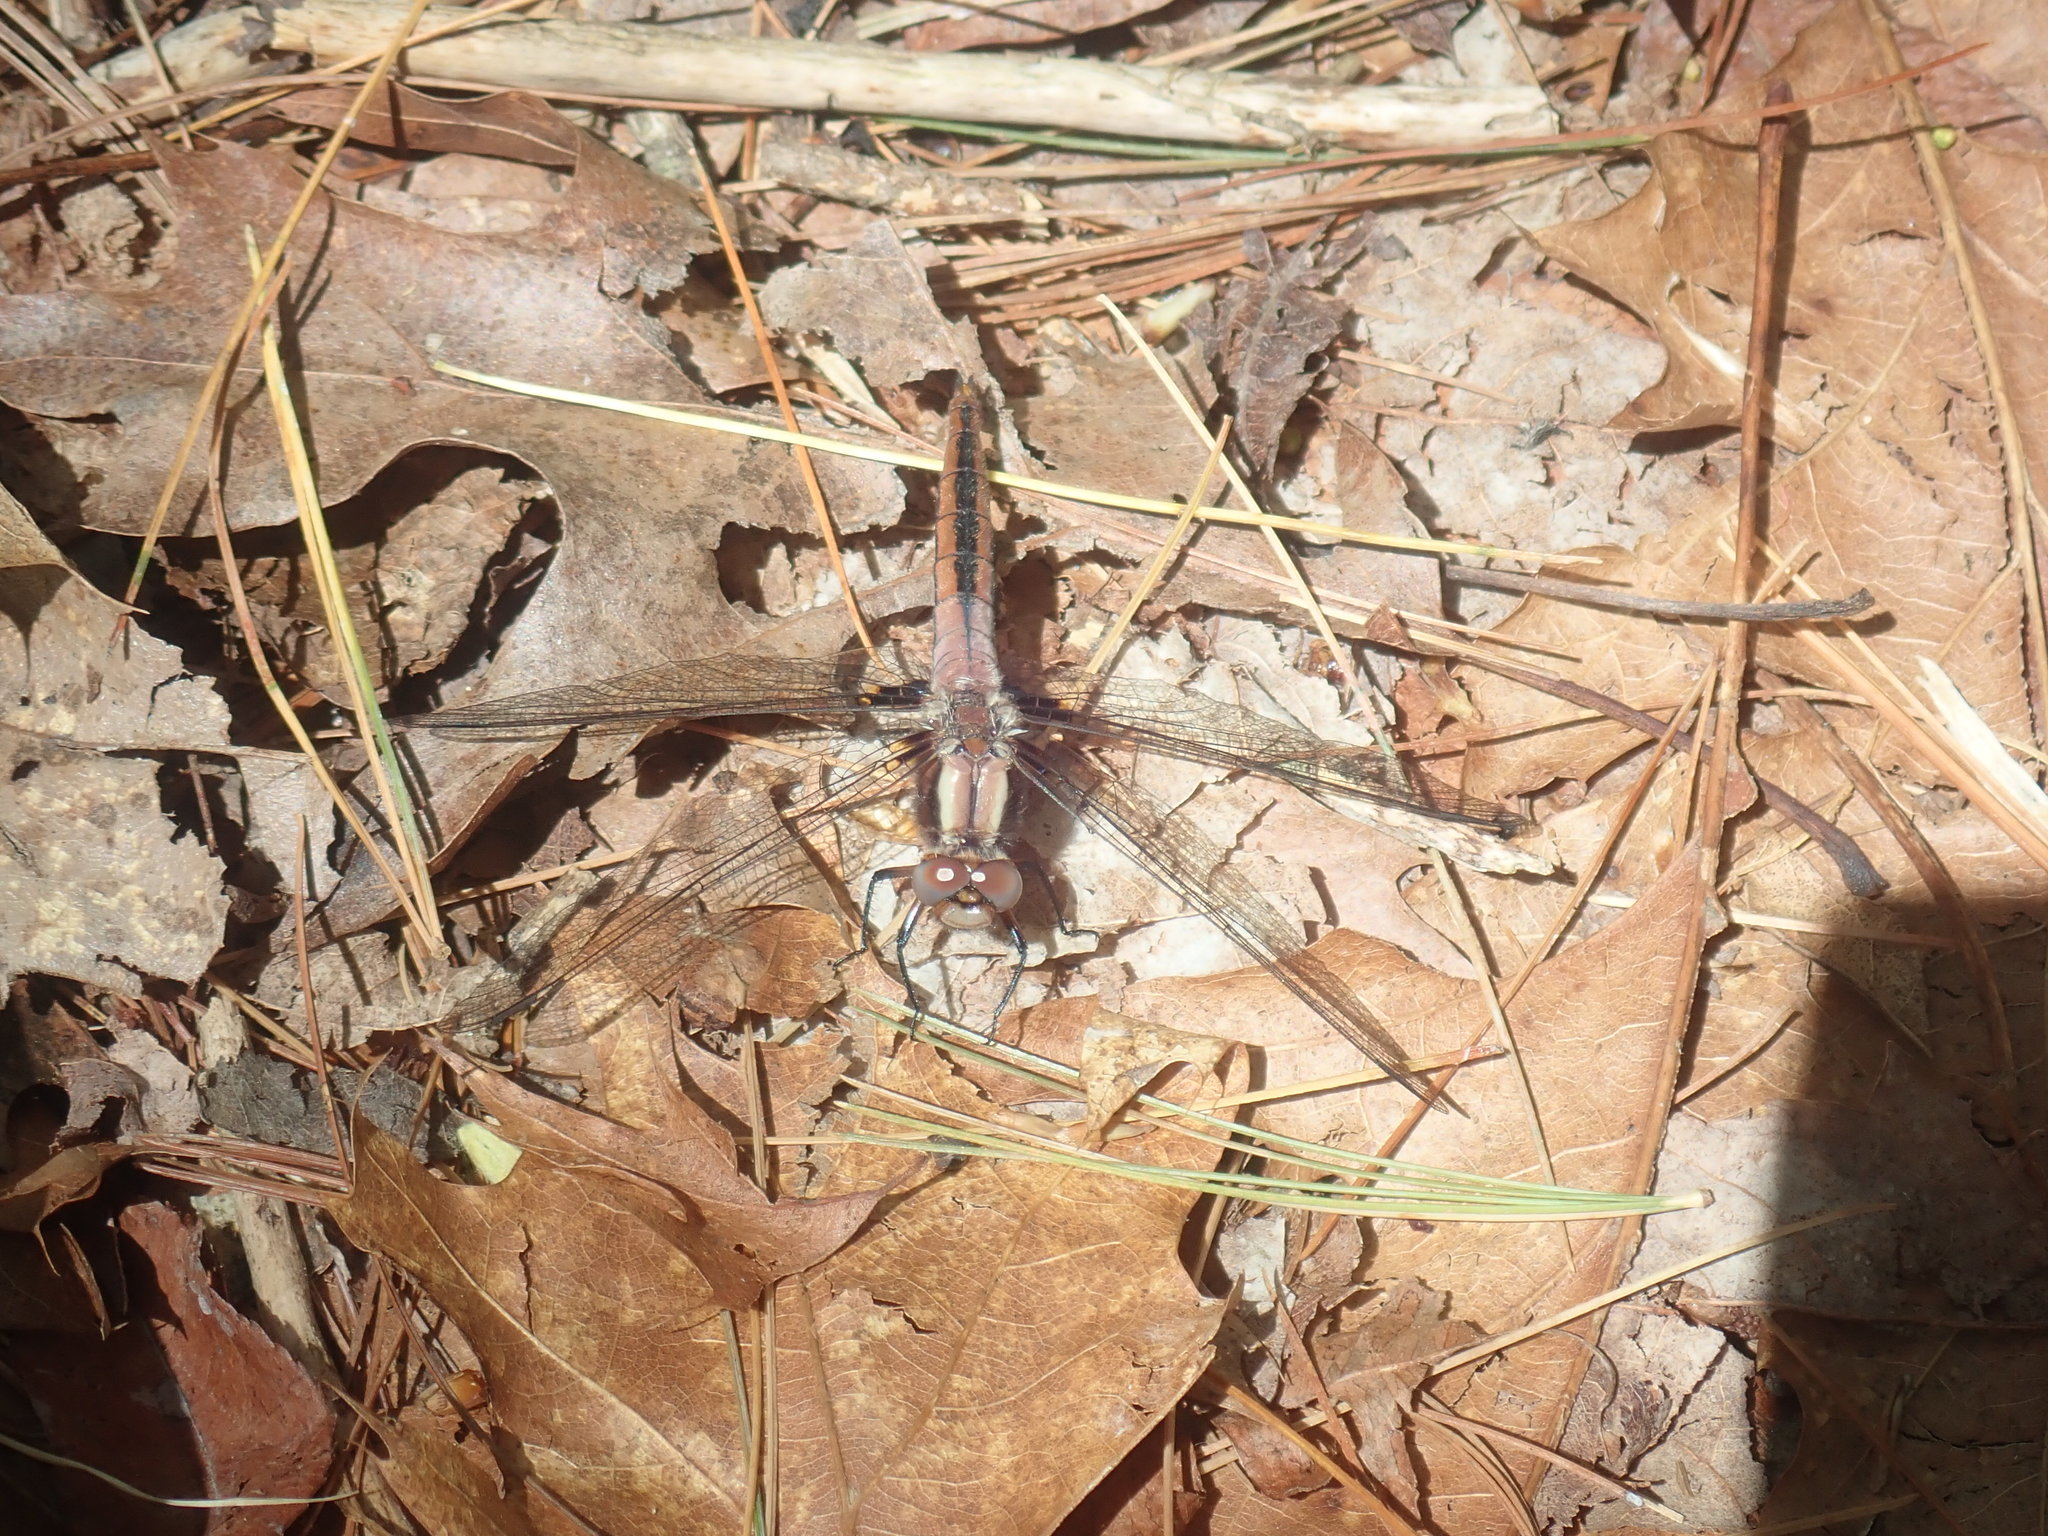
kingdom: Animalia
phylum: Arthropoda
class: Insecta
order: Odonata
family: Libellulidae
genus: Ladona
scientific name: Ladona julia
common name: Chalk-fronted corporal
